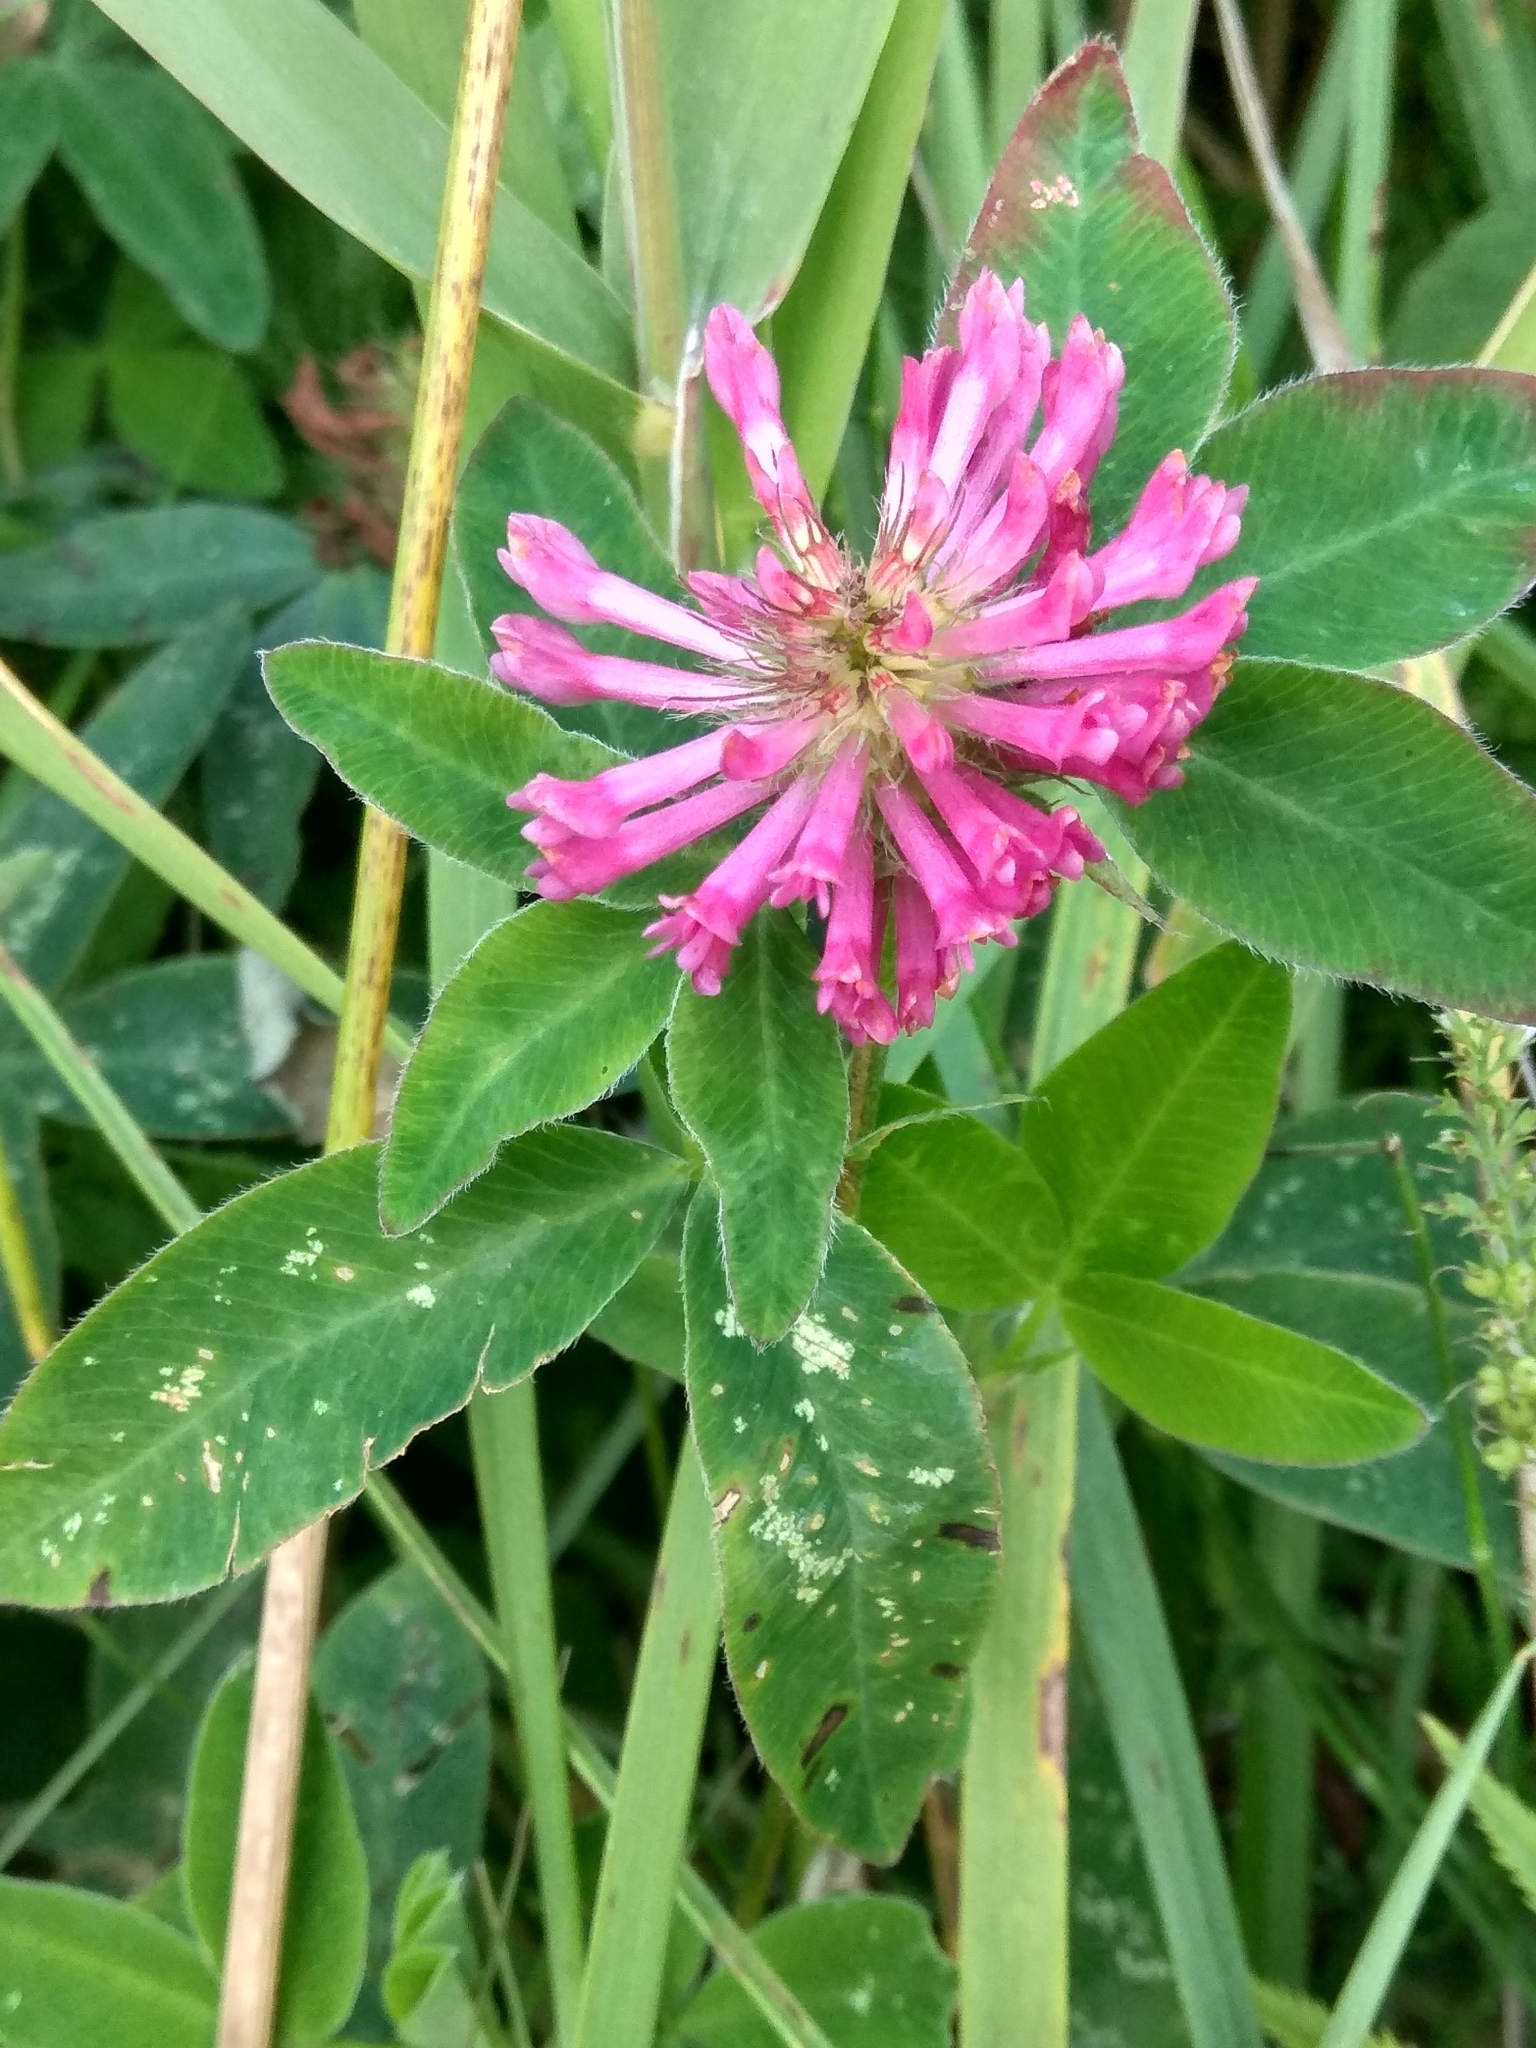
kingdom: Plantae
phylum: Tracheophyta
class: Magnoliopsida
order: Fabales
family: Fabaceae
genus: Trifolium
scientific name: Trifolium medium
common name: Zigzag clover
